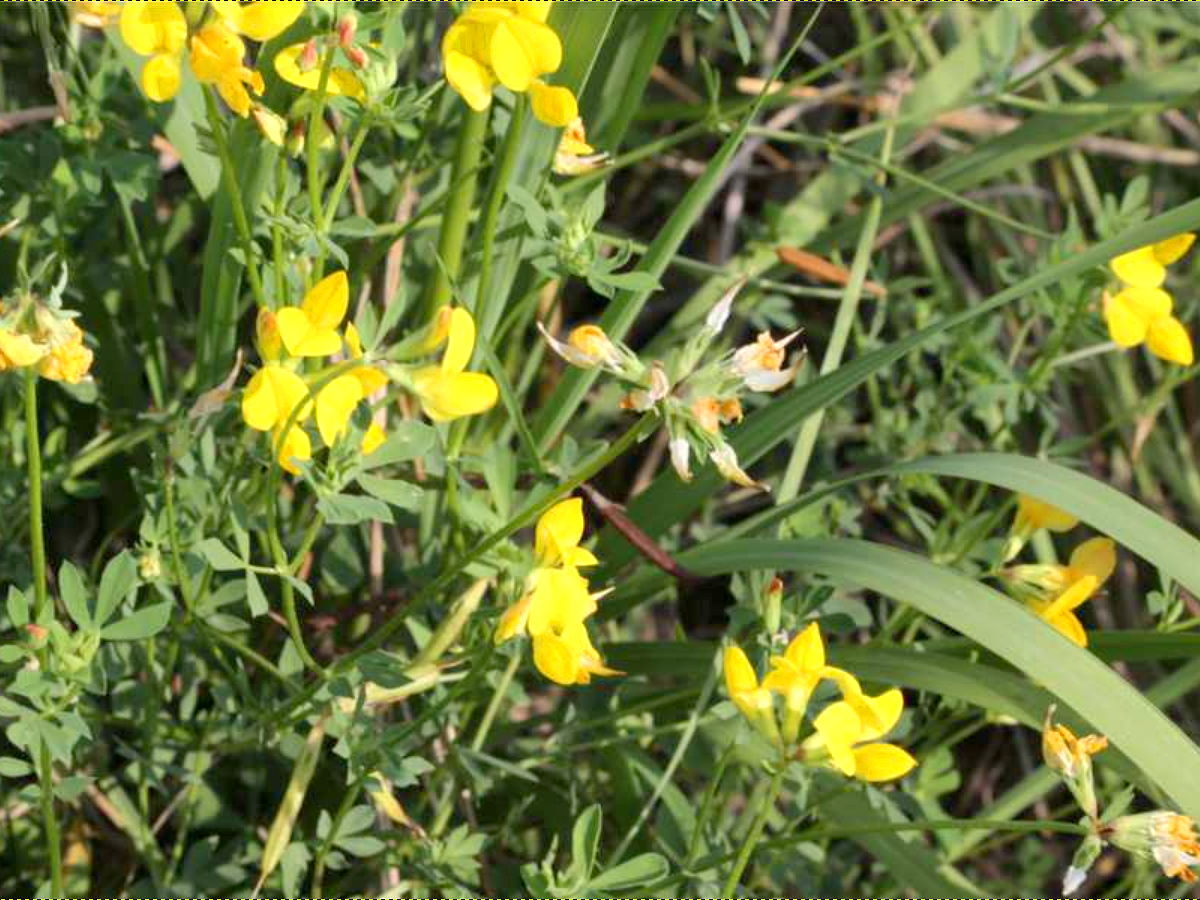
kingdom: Plantae
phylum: Tracheophyta
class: Magnoliopsida
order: Fabales
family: Fabaceae
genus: Lotus
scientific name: Lotus corniculatus
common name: Common bird's-foot-trefoil
